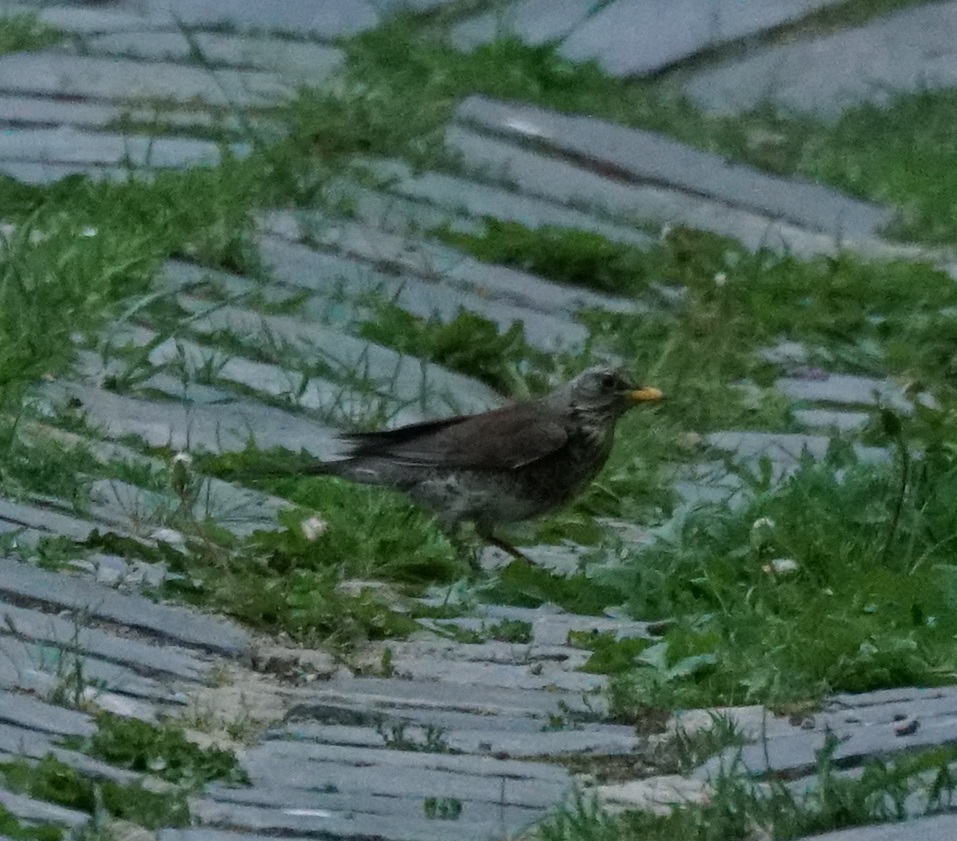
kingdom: Animalia
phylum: Chordata
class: Aves
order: Passeriformes
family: Turdidae
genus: Turdus
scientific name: Turdus pilaris
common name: Fieldfare
